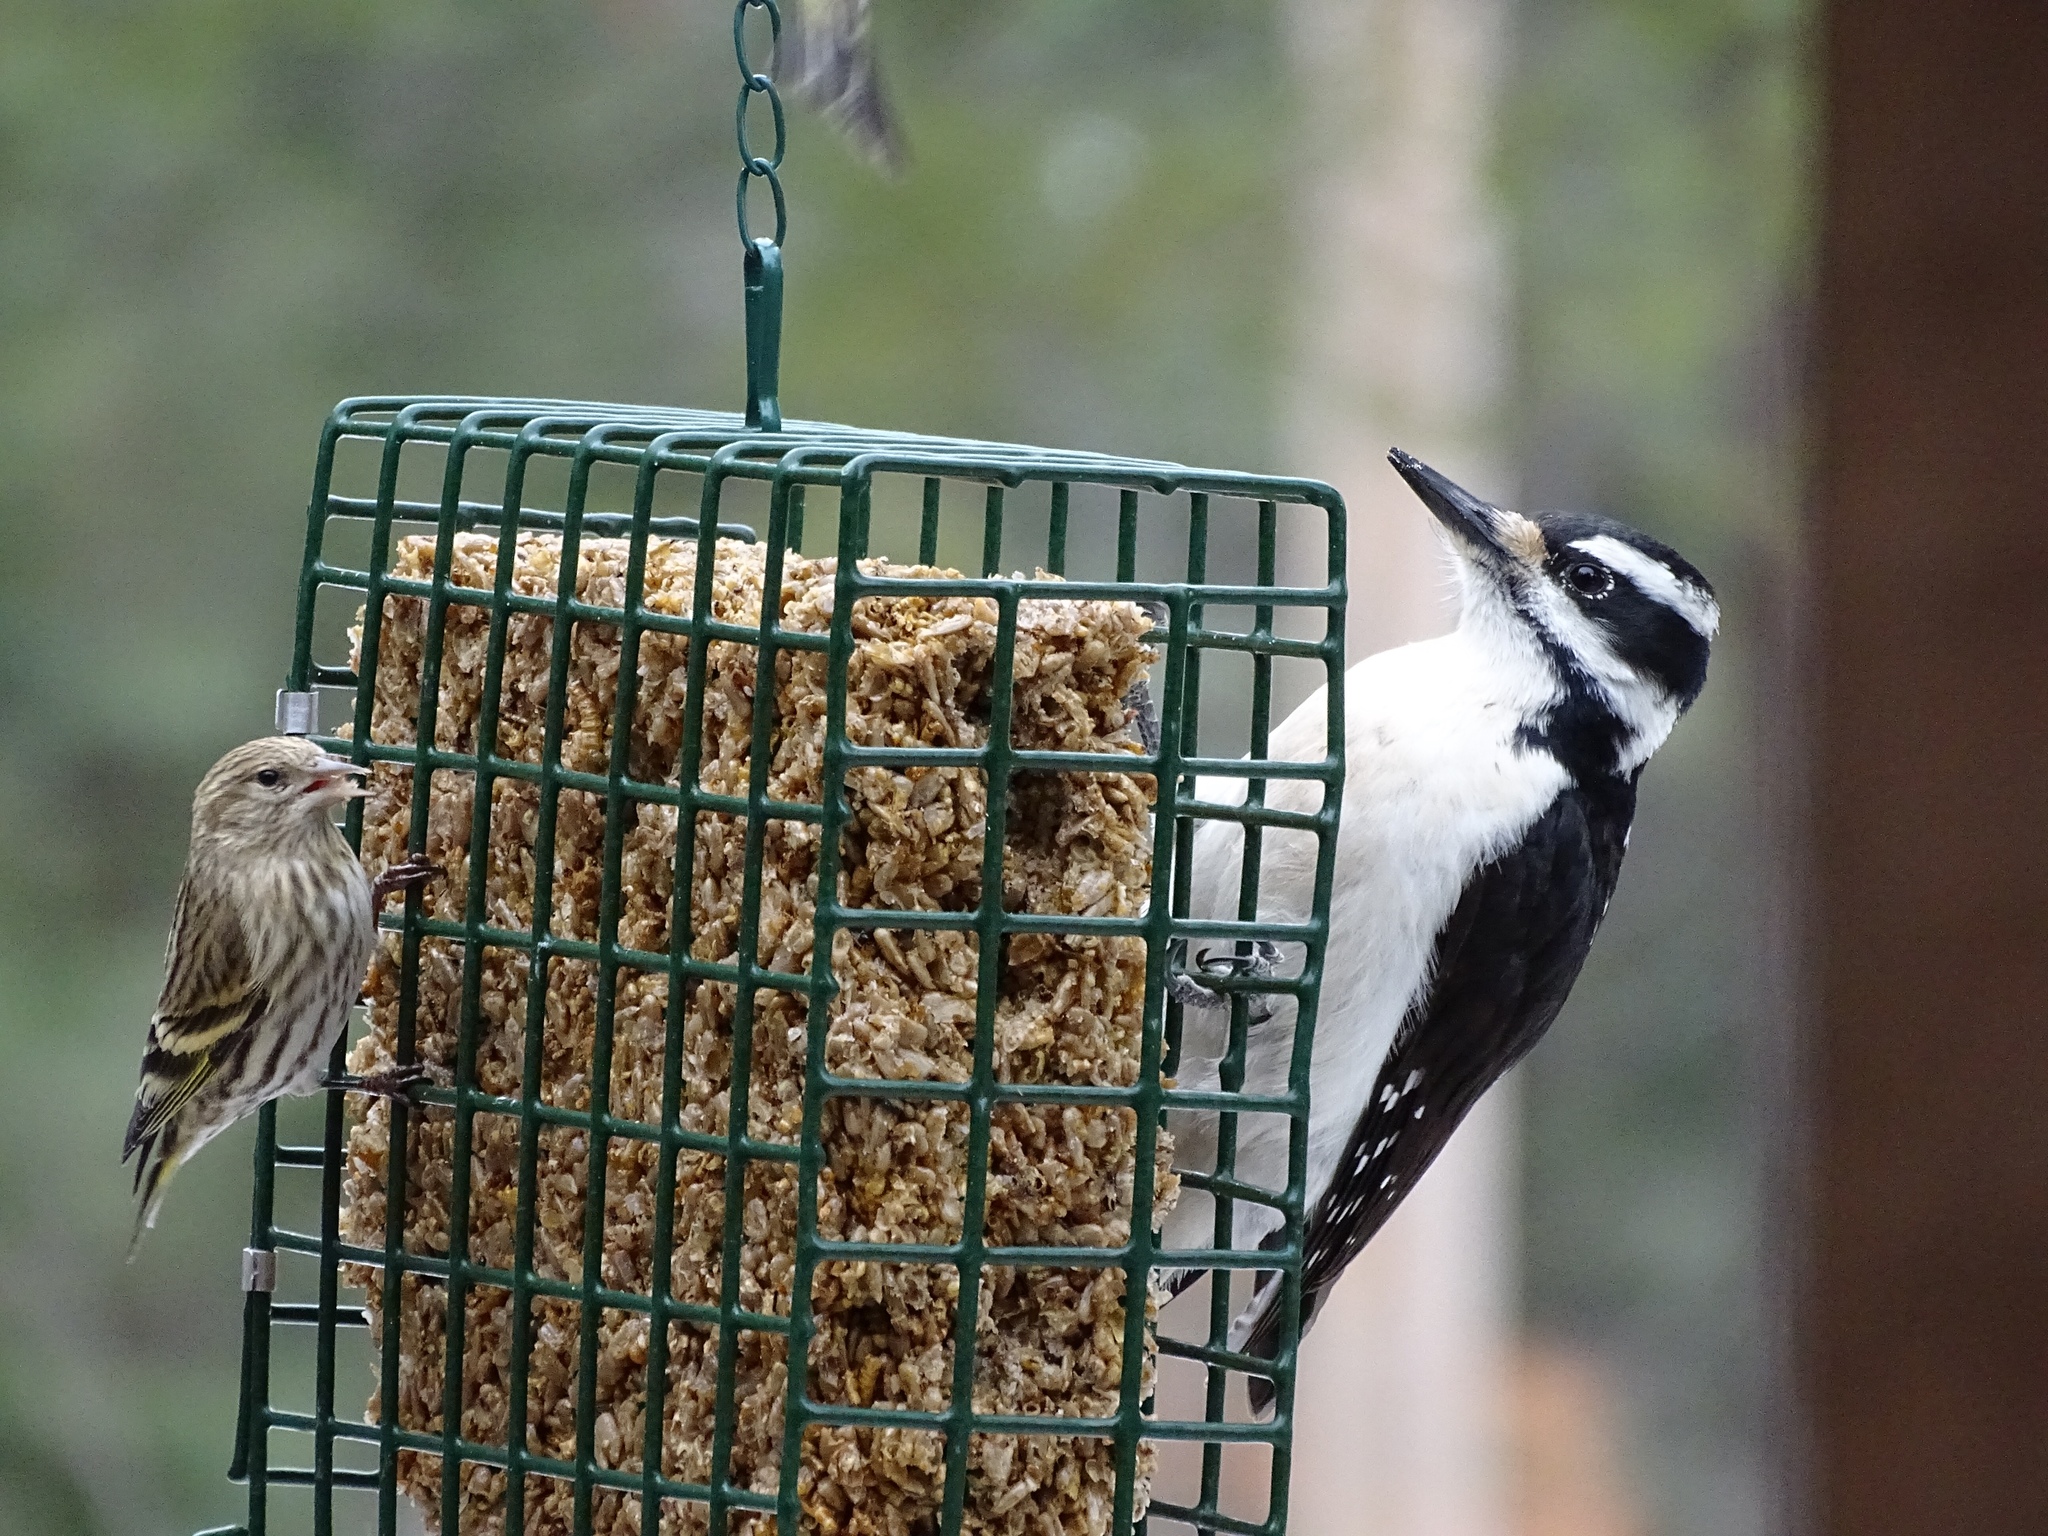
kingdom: Animalia
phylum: Chordata
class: Aves
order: Piciformes
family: Picidae
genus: Leuconotopicus
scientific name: Leuconotopicus villosus
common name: Hairy woodpecker
